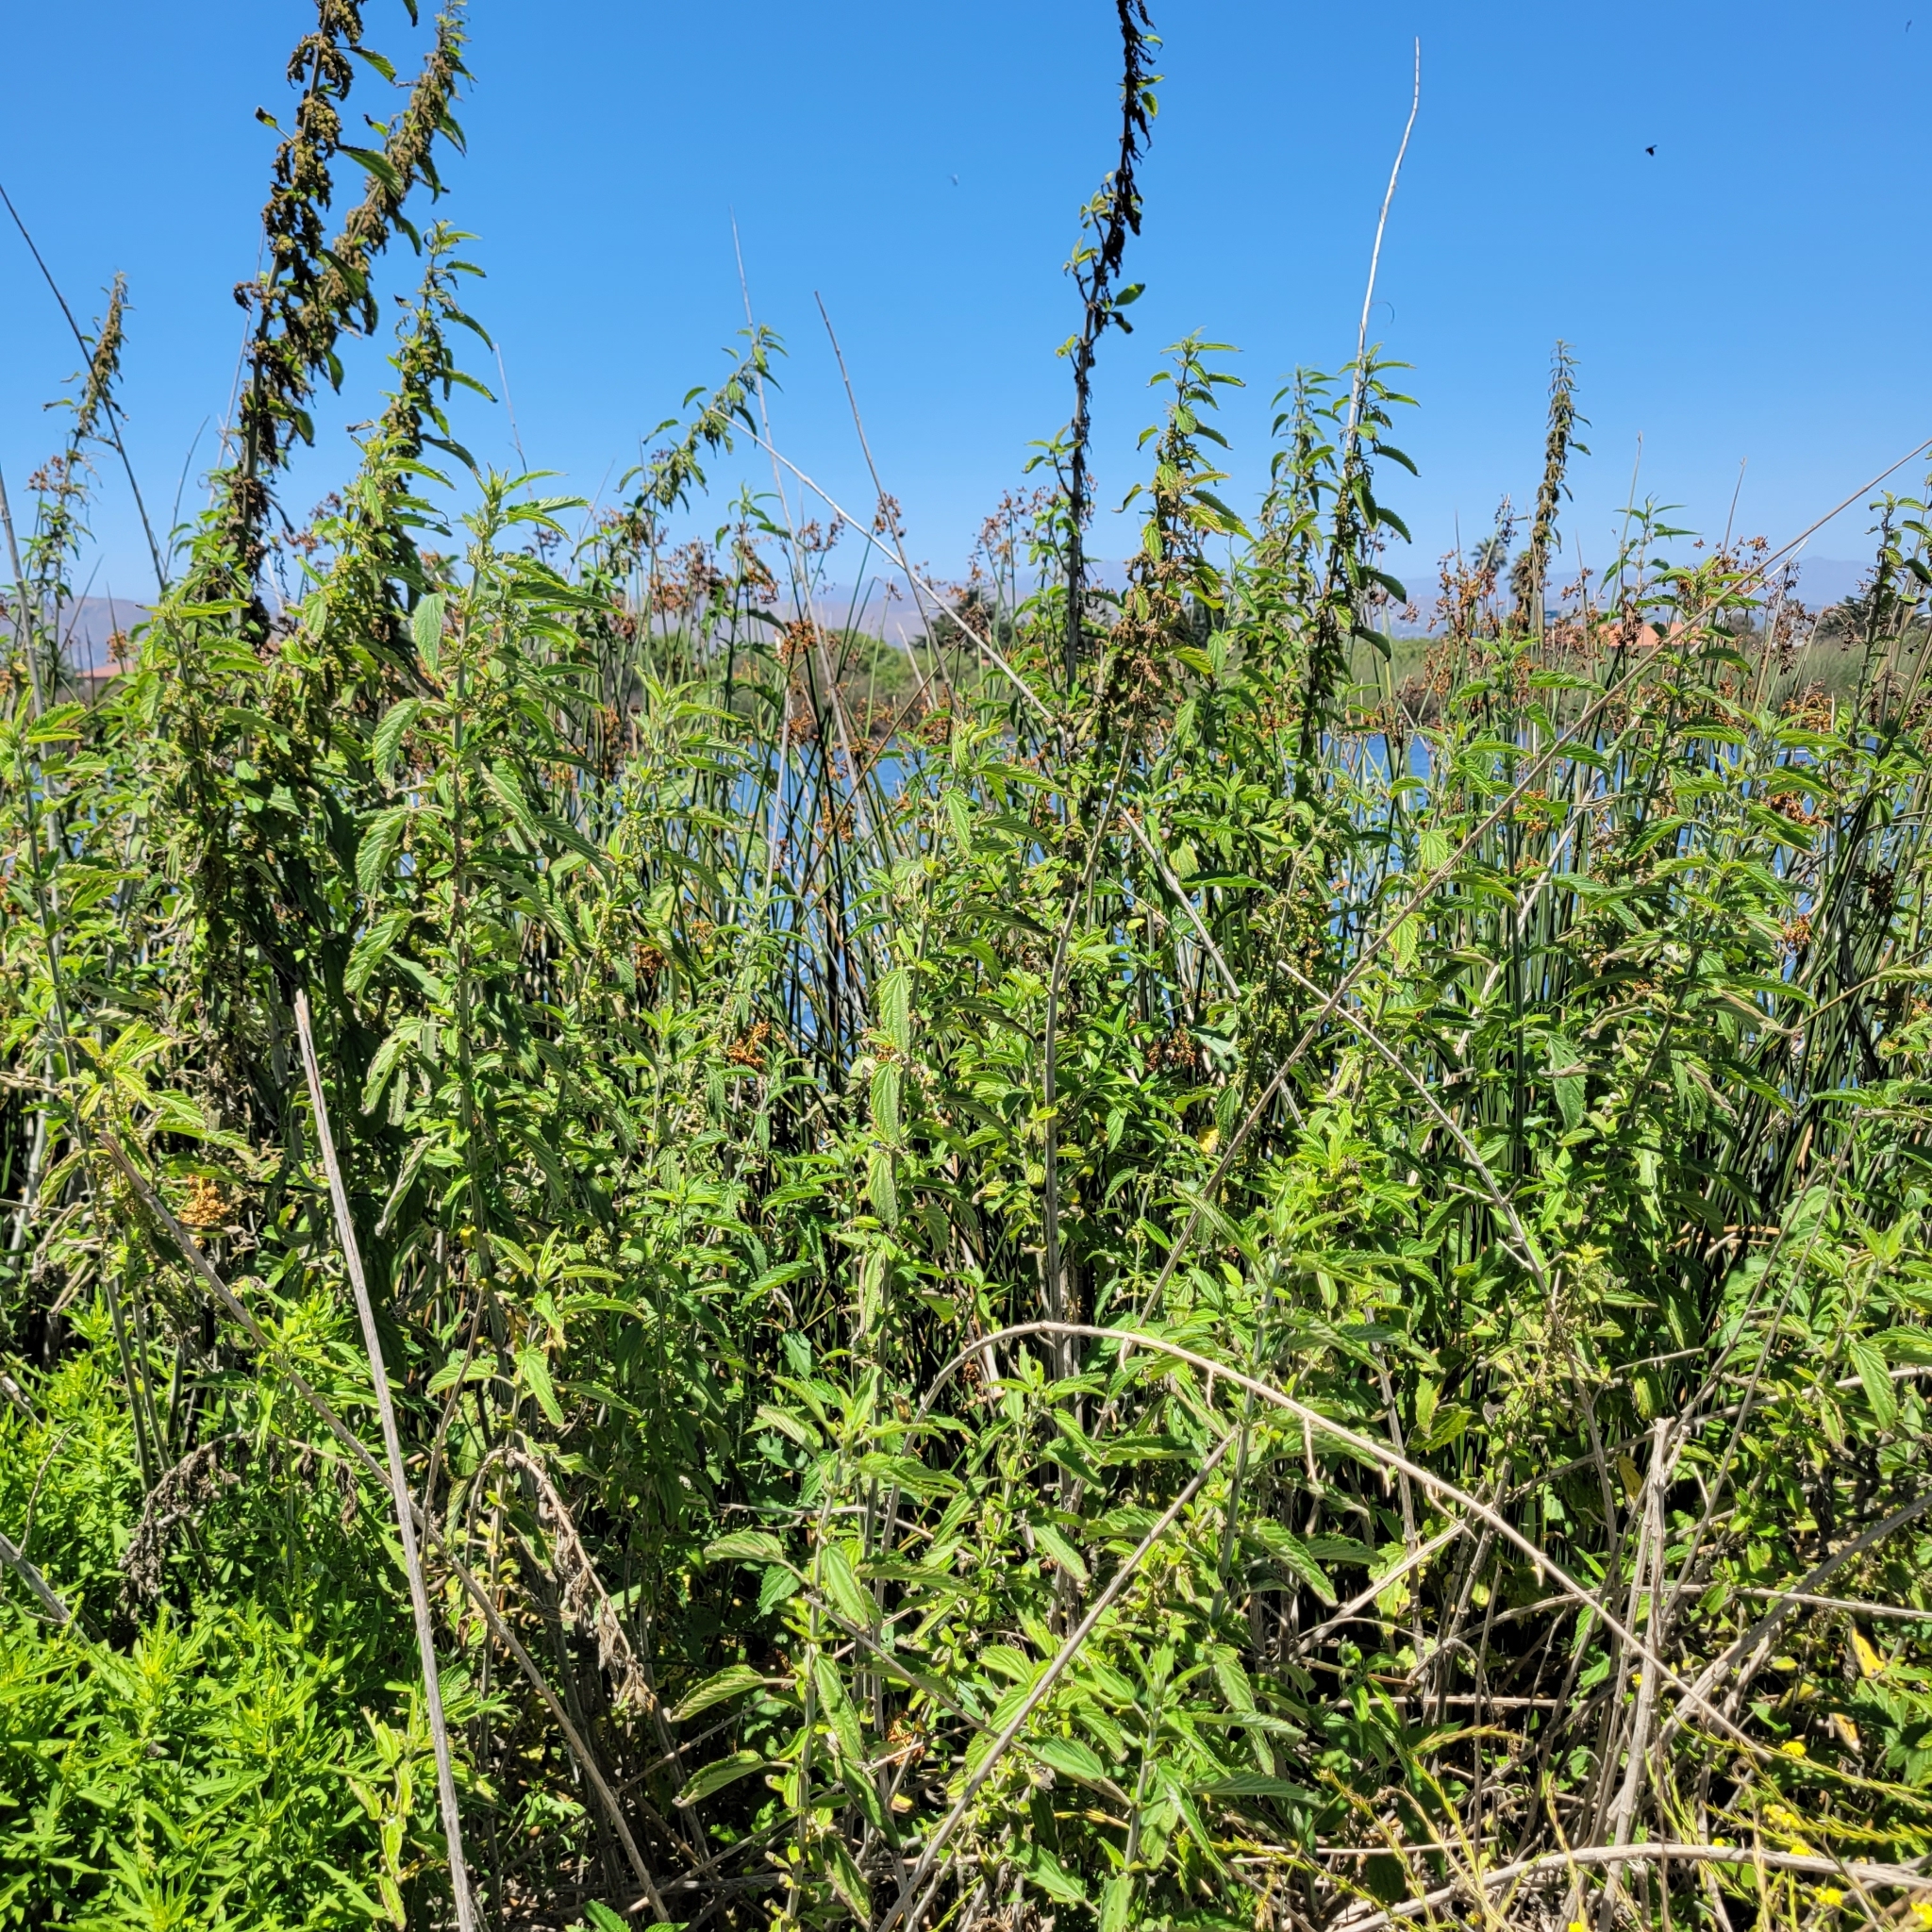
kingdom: Plantae
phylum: Tracheophyta
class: Magnoliopsida
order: Rosales
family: Urticaceae
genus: Urtica
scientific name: Urtica dioica
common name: Common nettle
